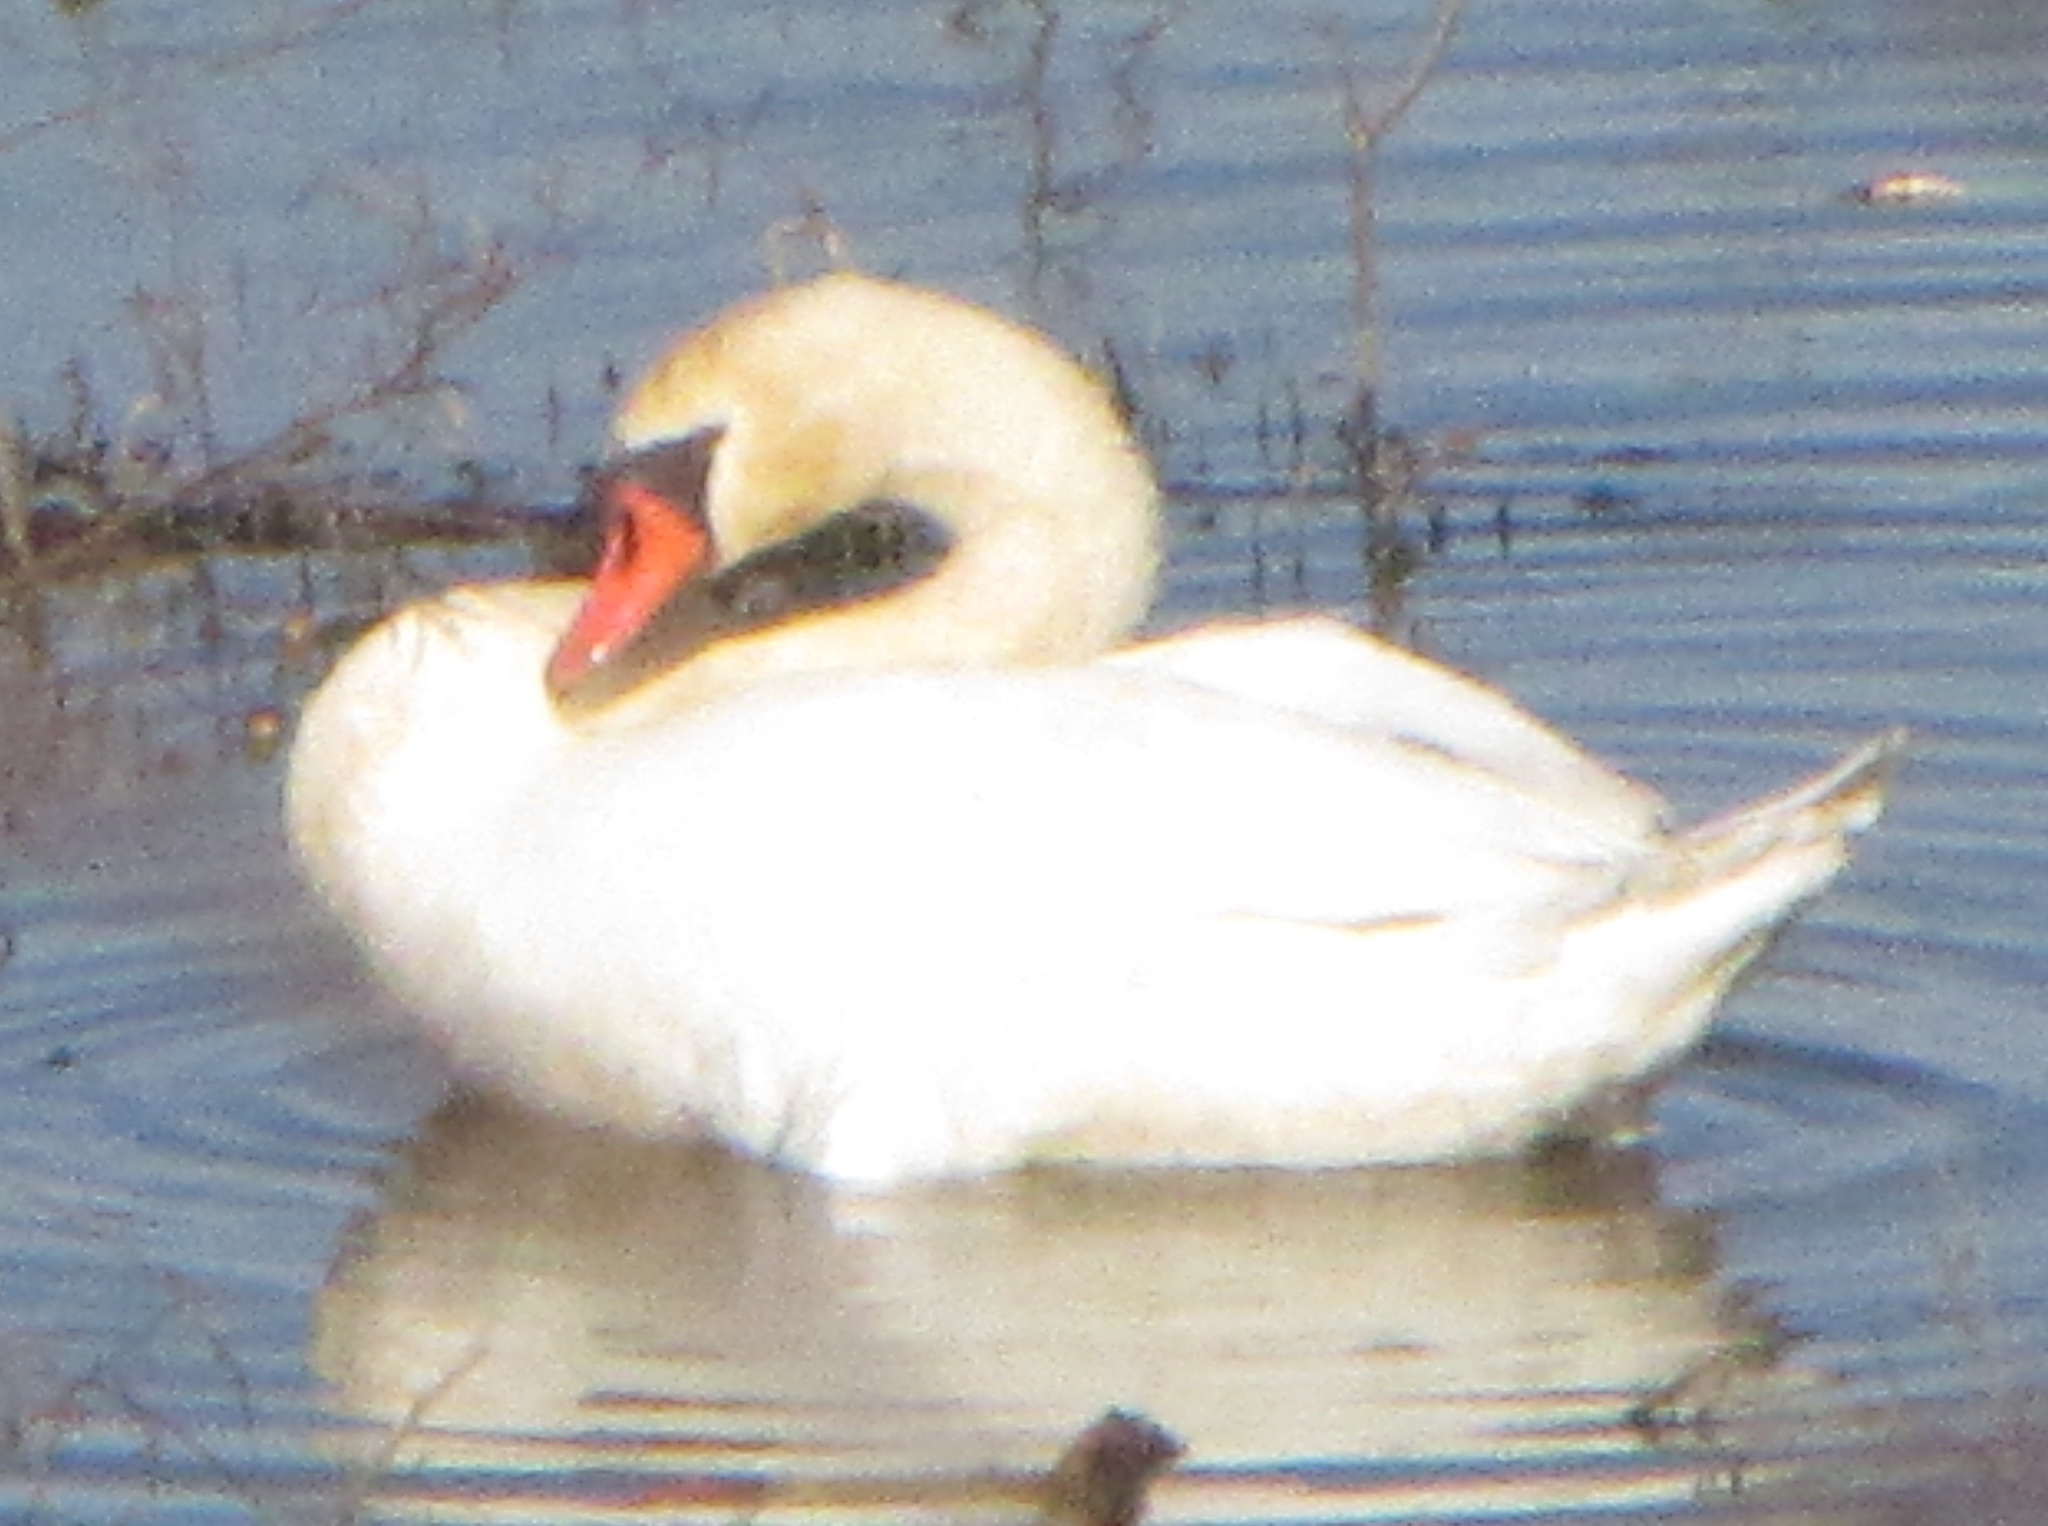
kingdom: Animalia
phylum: Chordata
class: Aves
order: Anseriformes
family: Anatidae
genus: Cygnus
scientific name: Cygnus olor
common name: Mute swan
